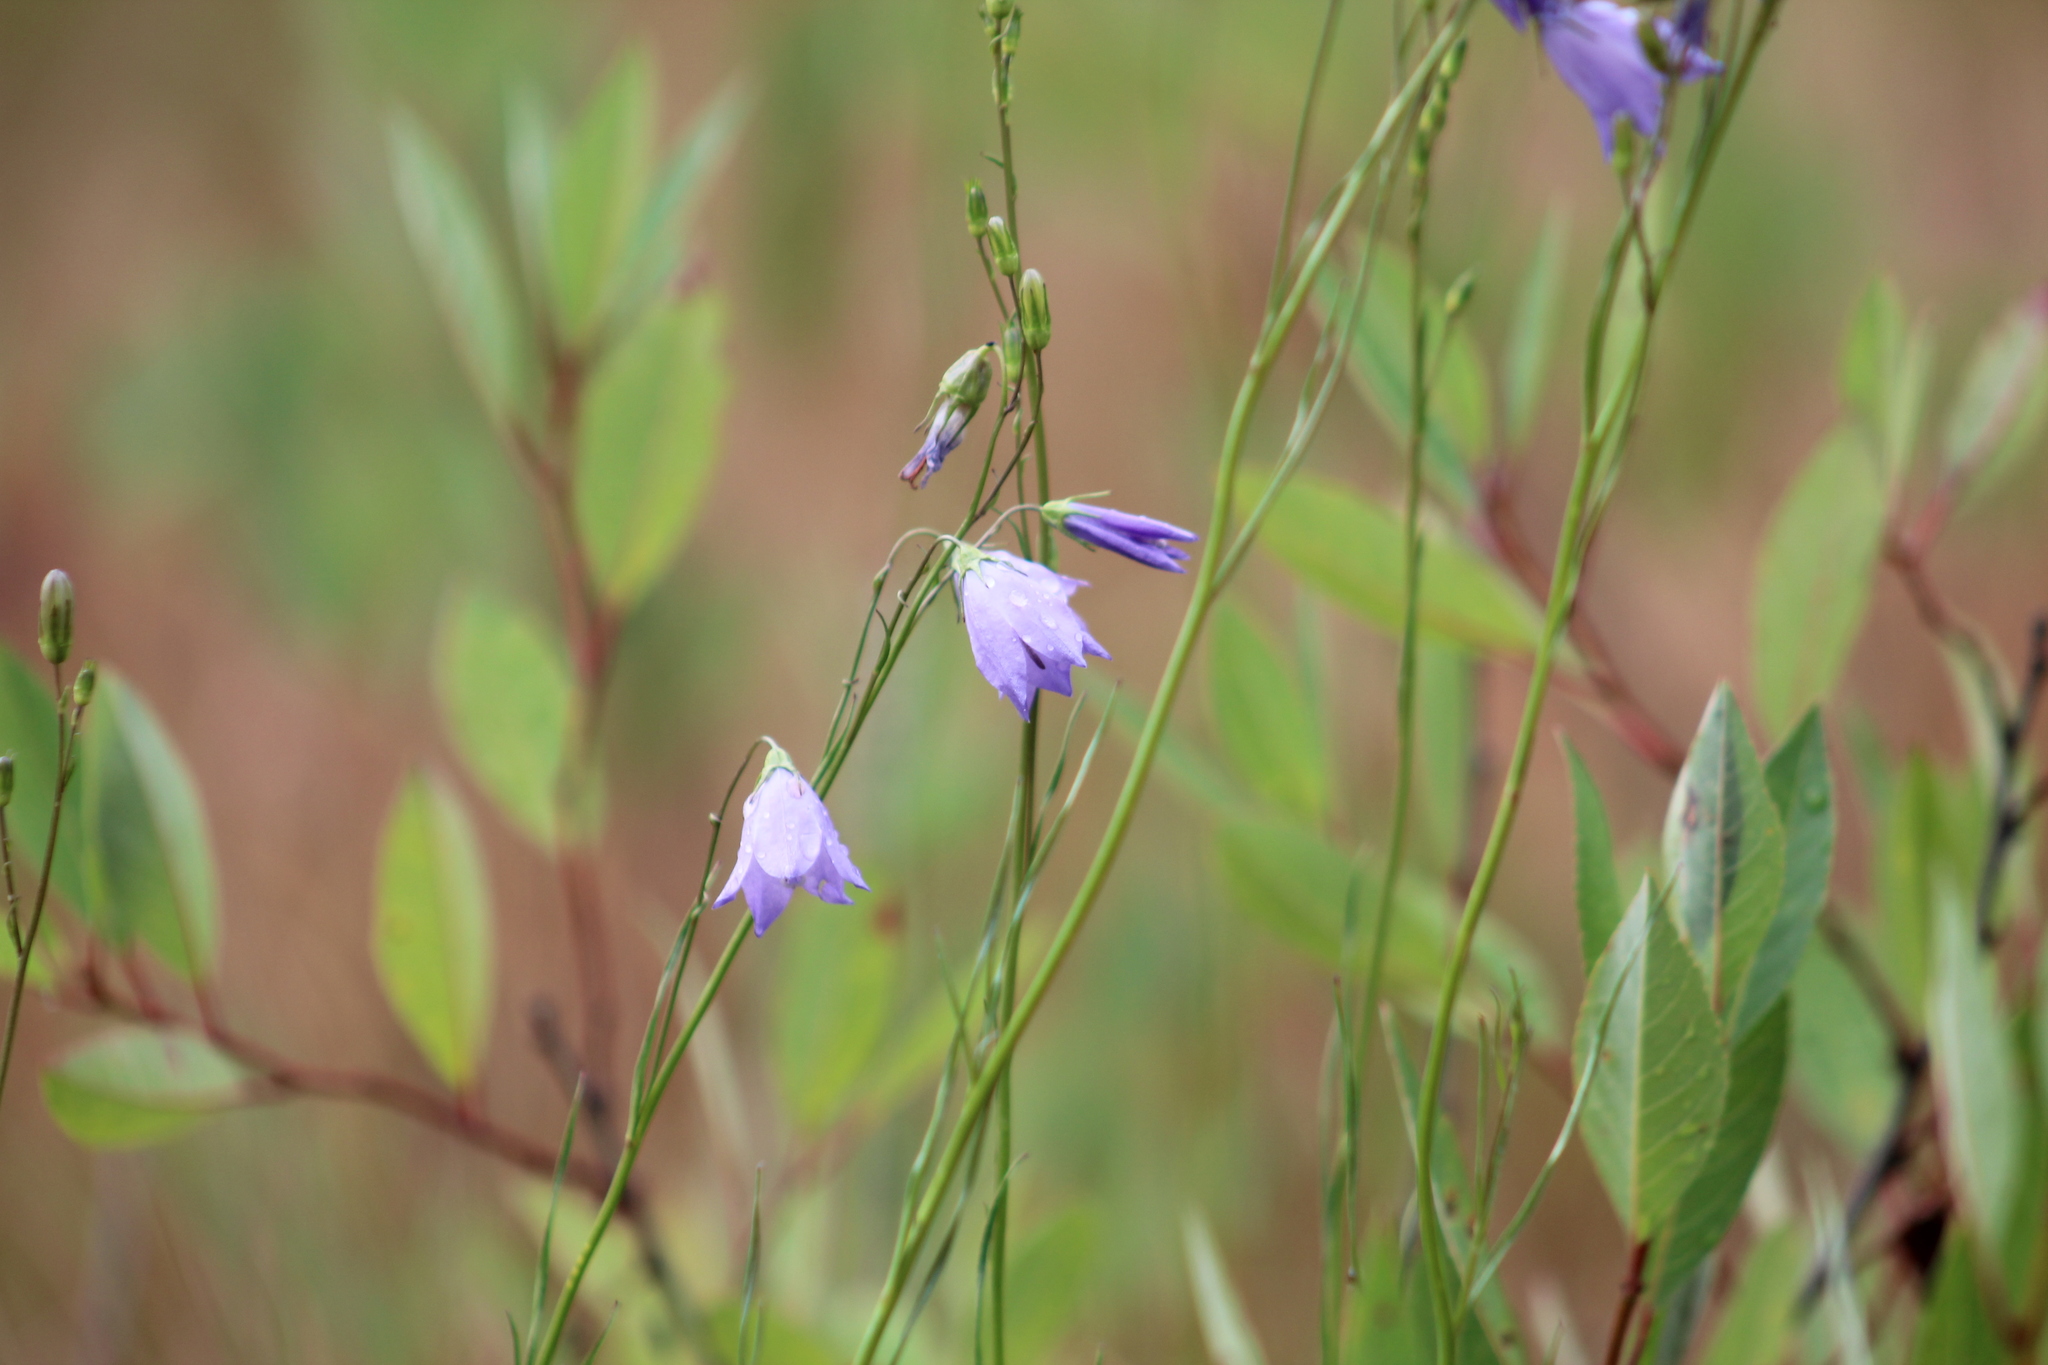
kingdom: Plantae
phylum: Tracheophyta
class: Magnoliopsida
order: Asterales
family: Campanulaceae
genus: Campanula
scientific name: Campanula intercedens
